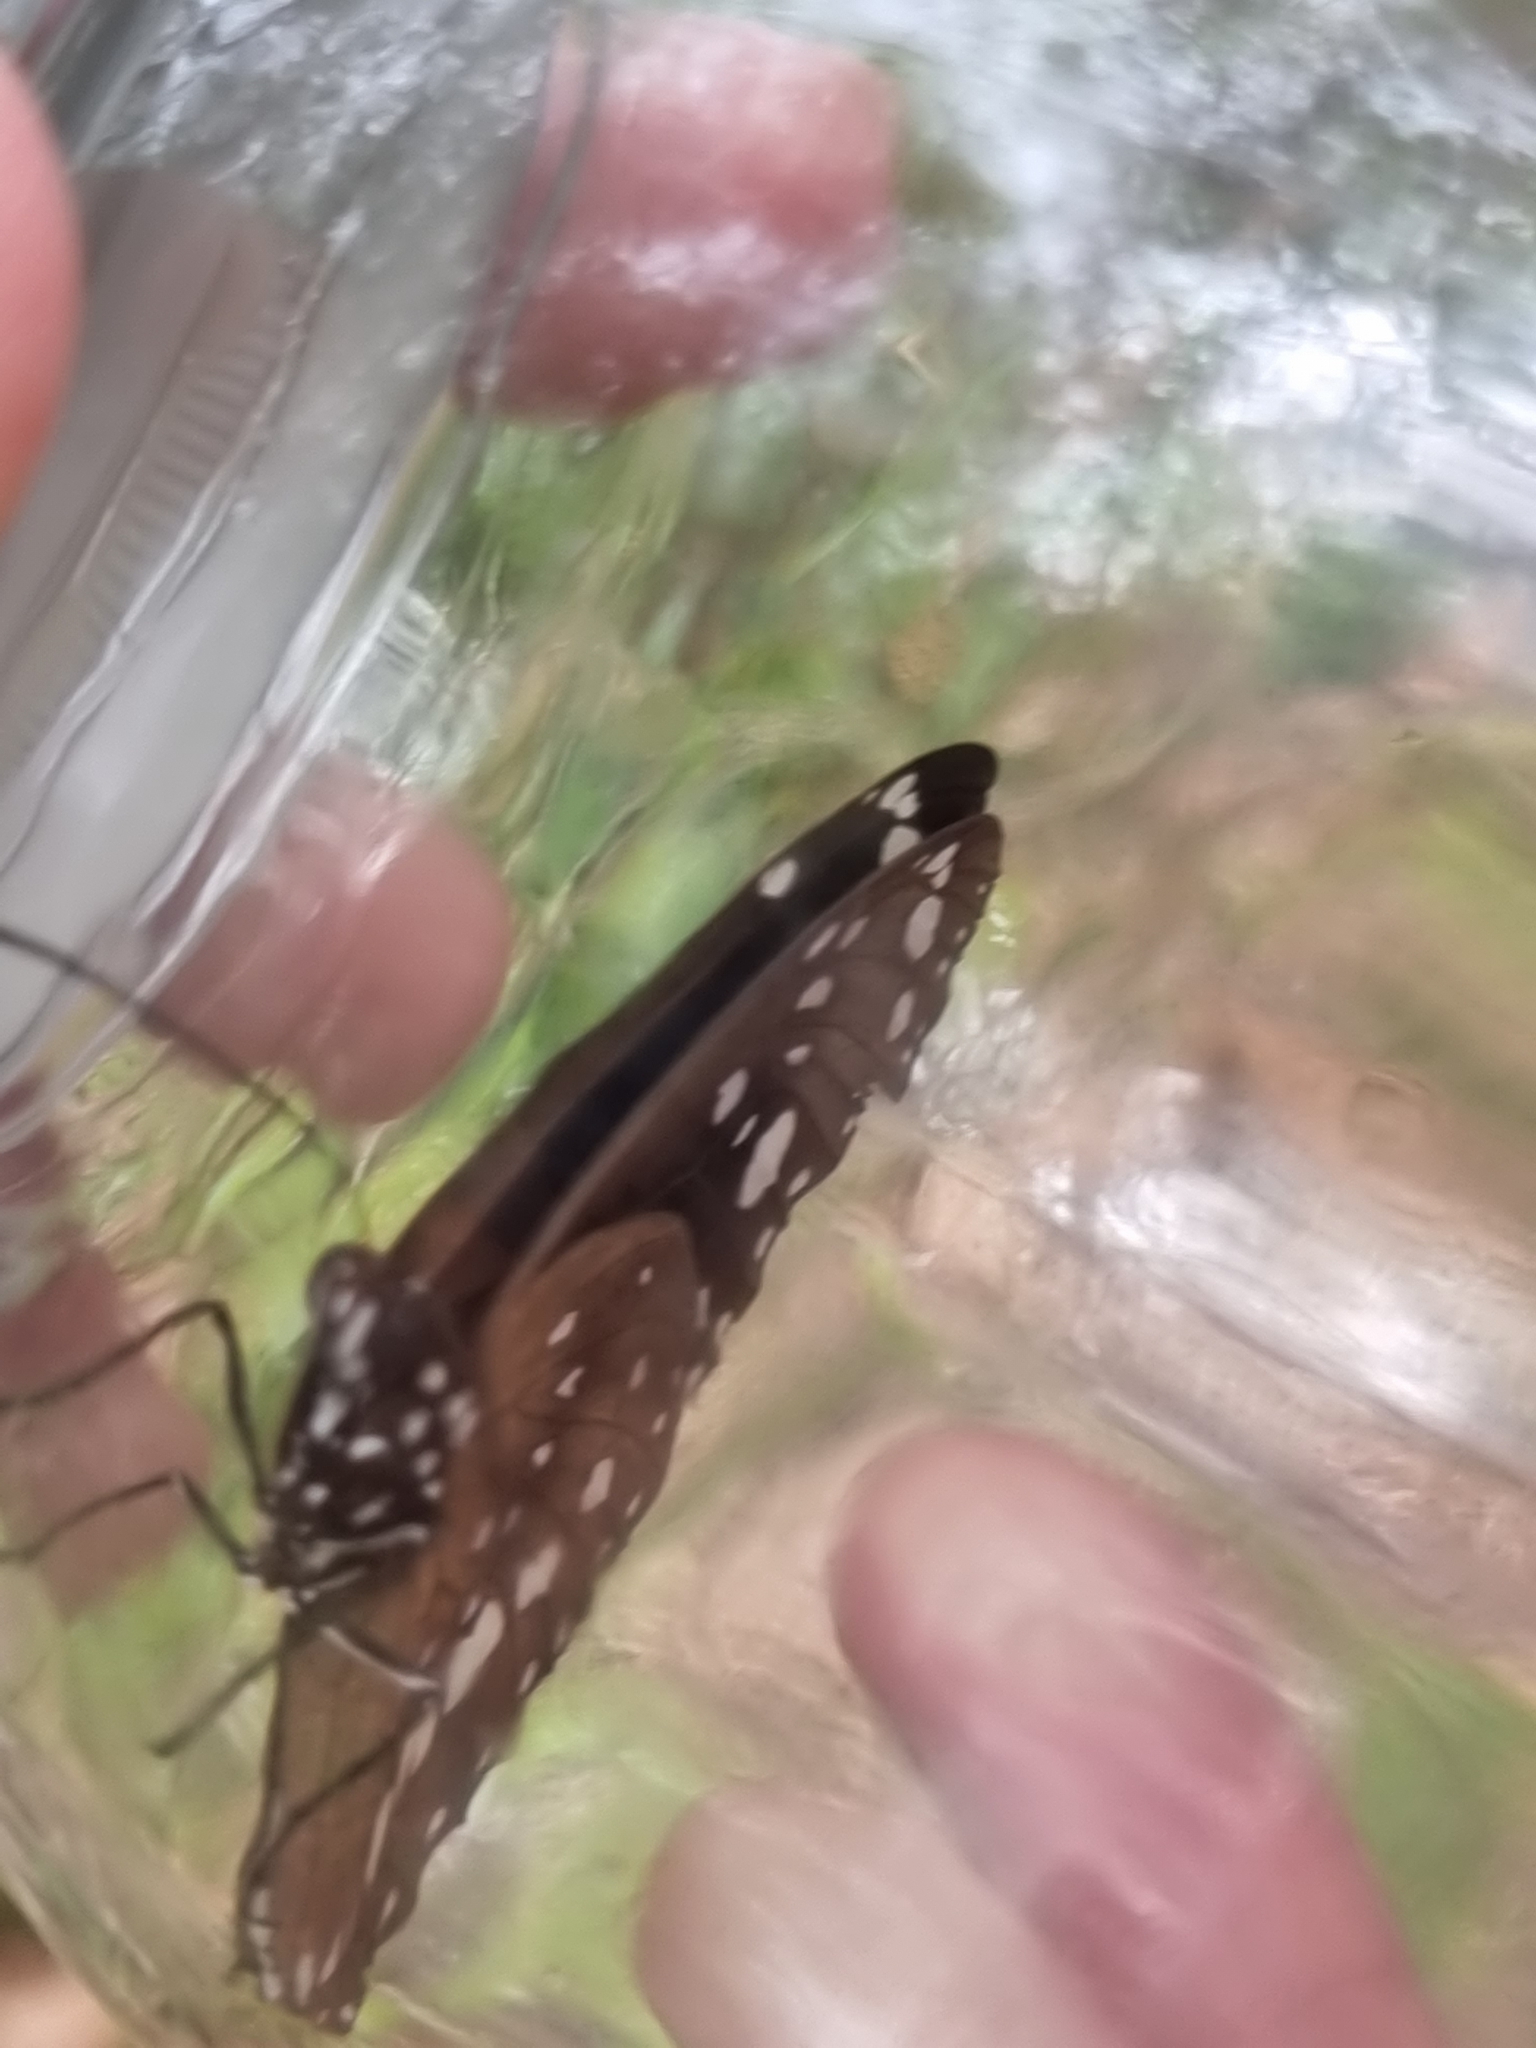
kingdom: Animalia
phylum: Arthropoda
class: Insecta
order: Lepidoptera
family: Nymphalidae
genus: Euploea
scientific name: Euploea core
